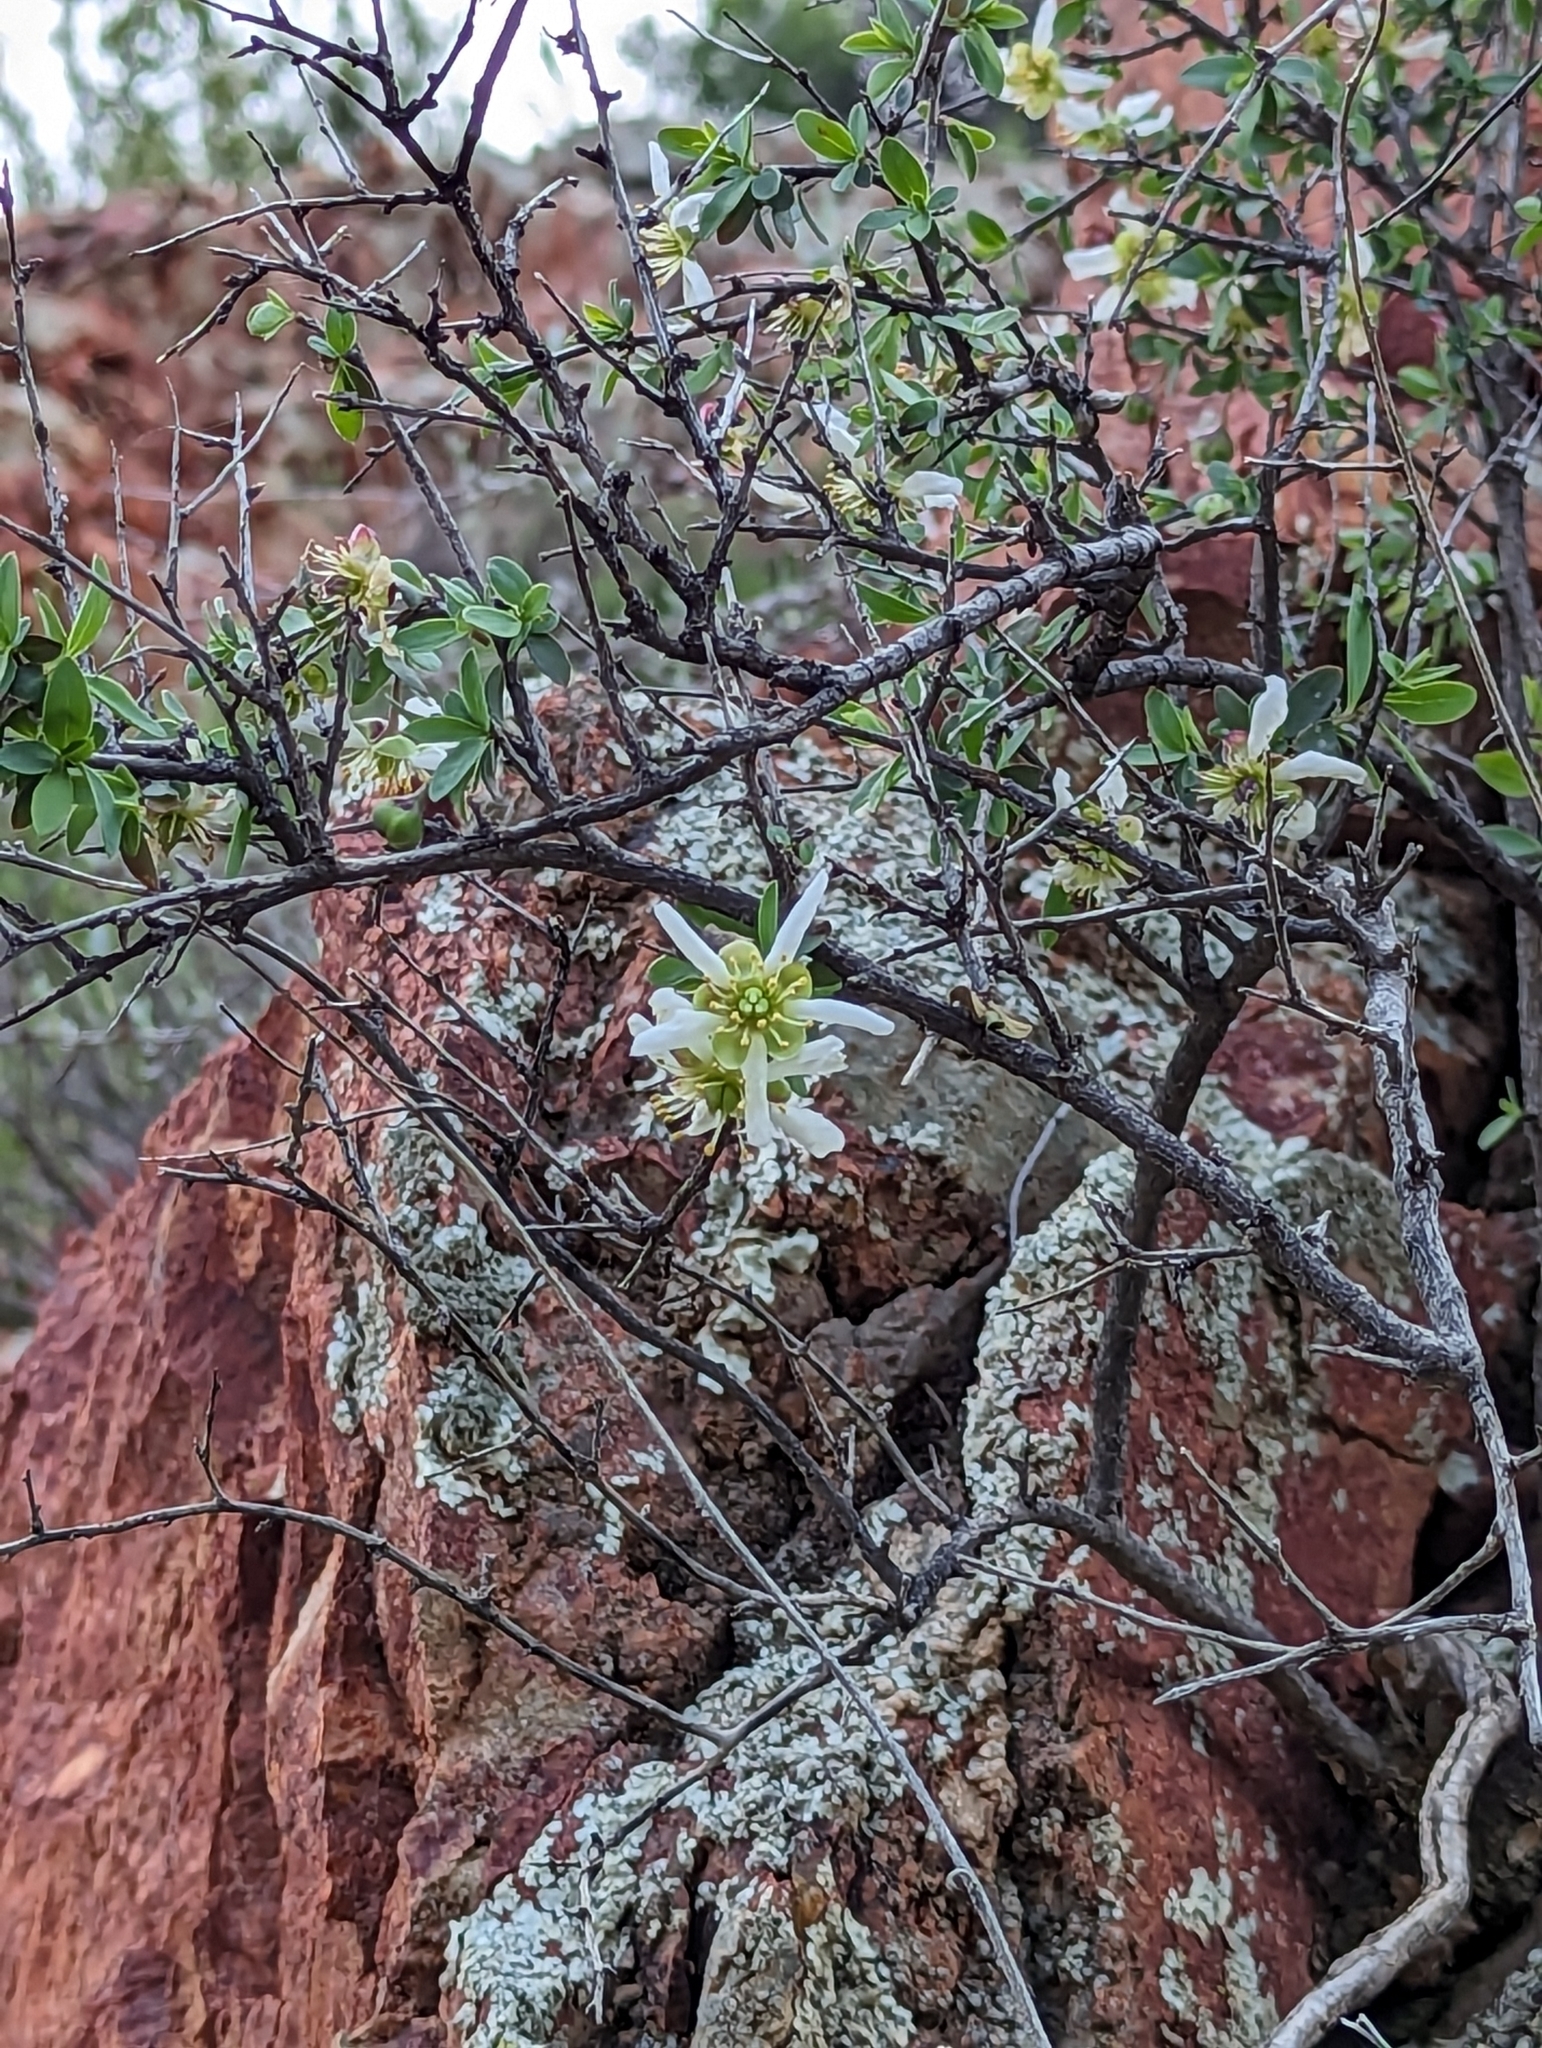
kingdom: Plantae
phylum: Tracheophyta
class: Magnoliopsida
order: Crossosomatales
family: Crossosomataceae
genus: Crossosoma
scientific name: Crossosoma bigelovii
